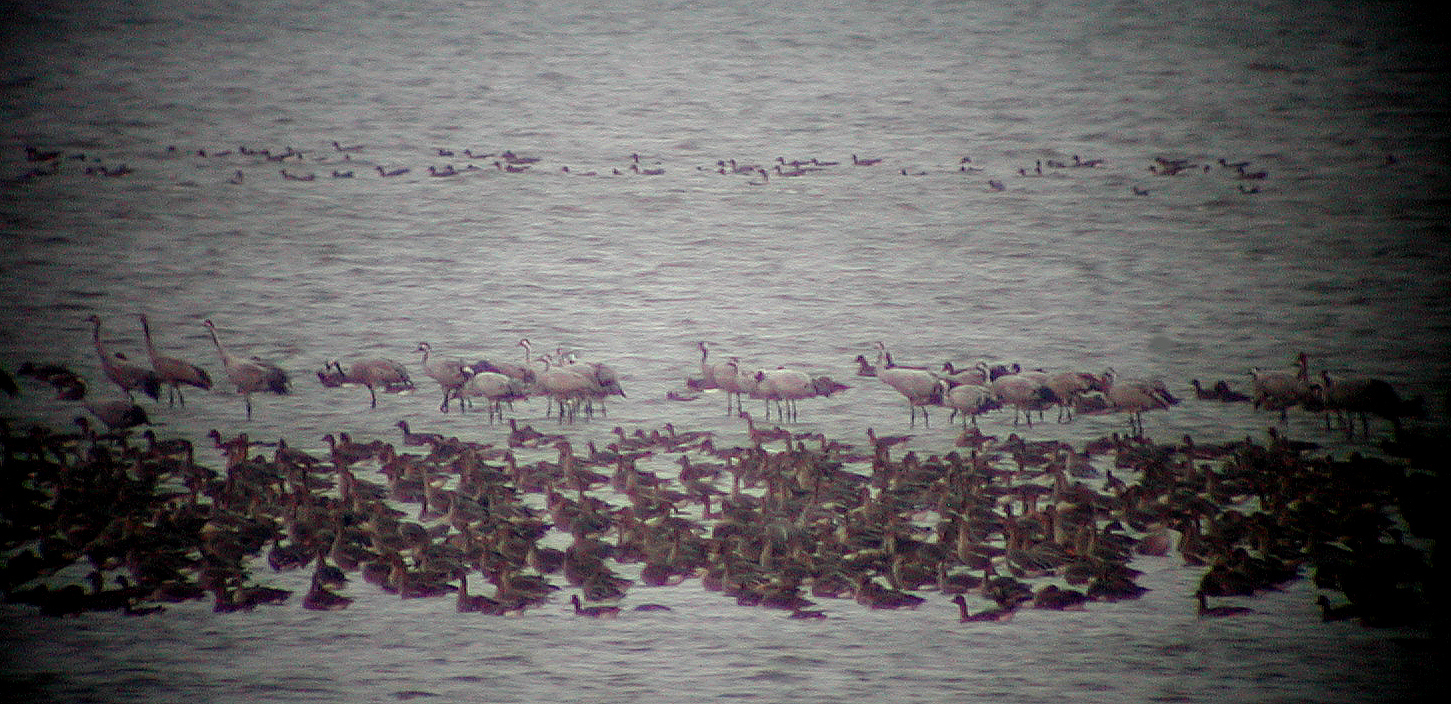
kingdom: Animalia
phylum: Chordata
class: Aves
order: Gruiformes
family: Gruidae
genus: Grus
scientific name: Grus grus
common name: Common crane
